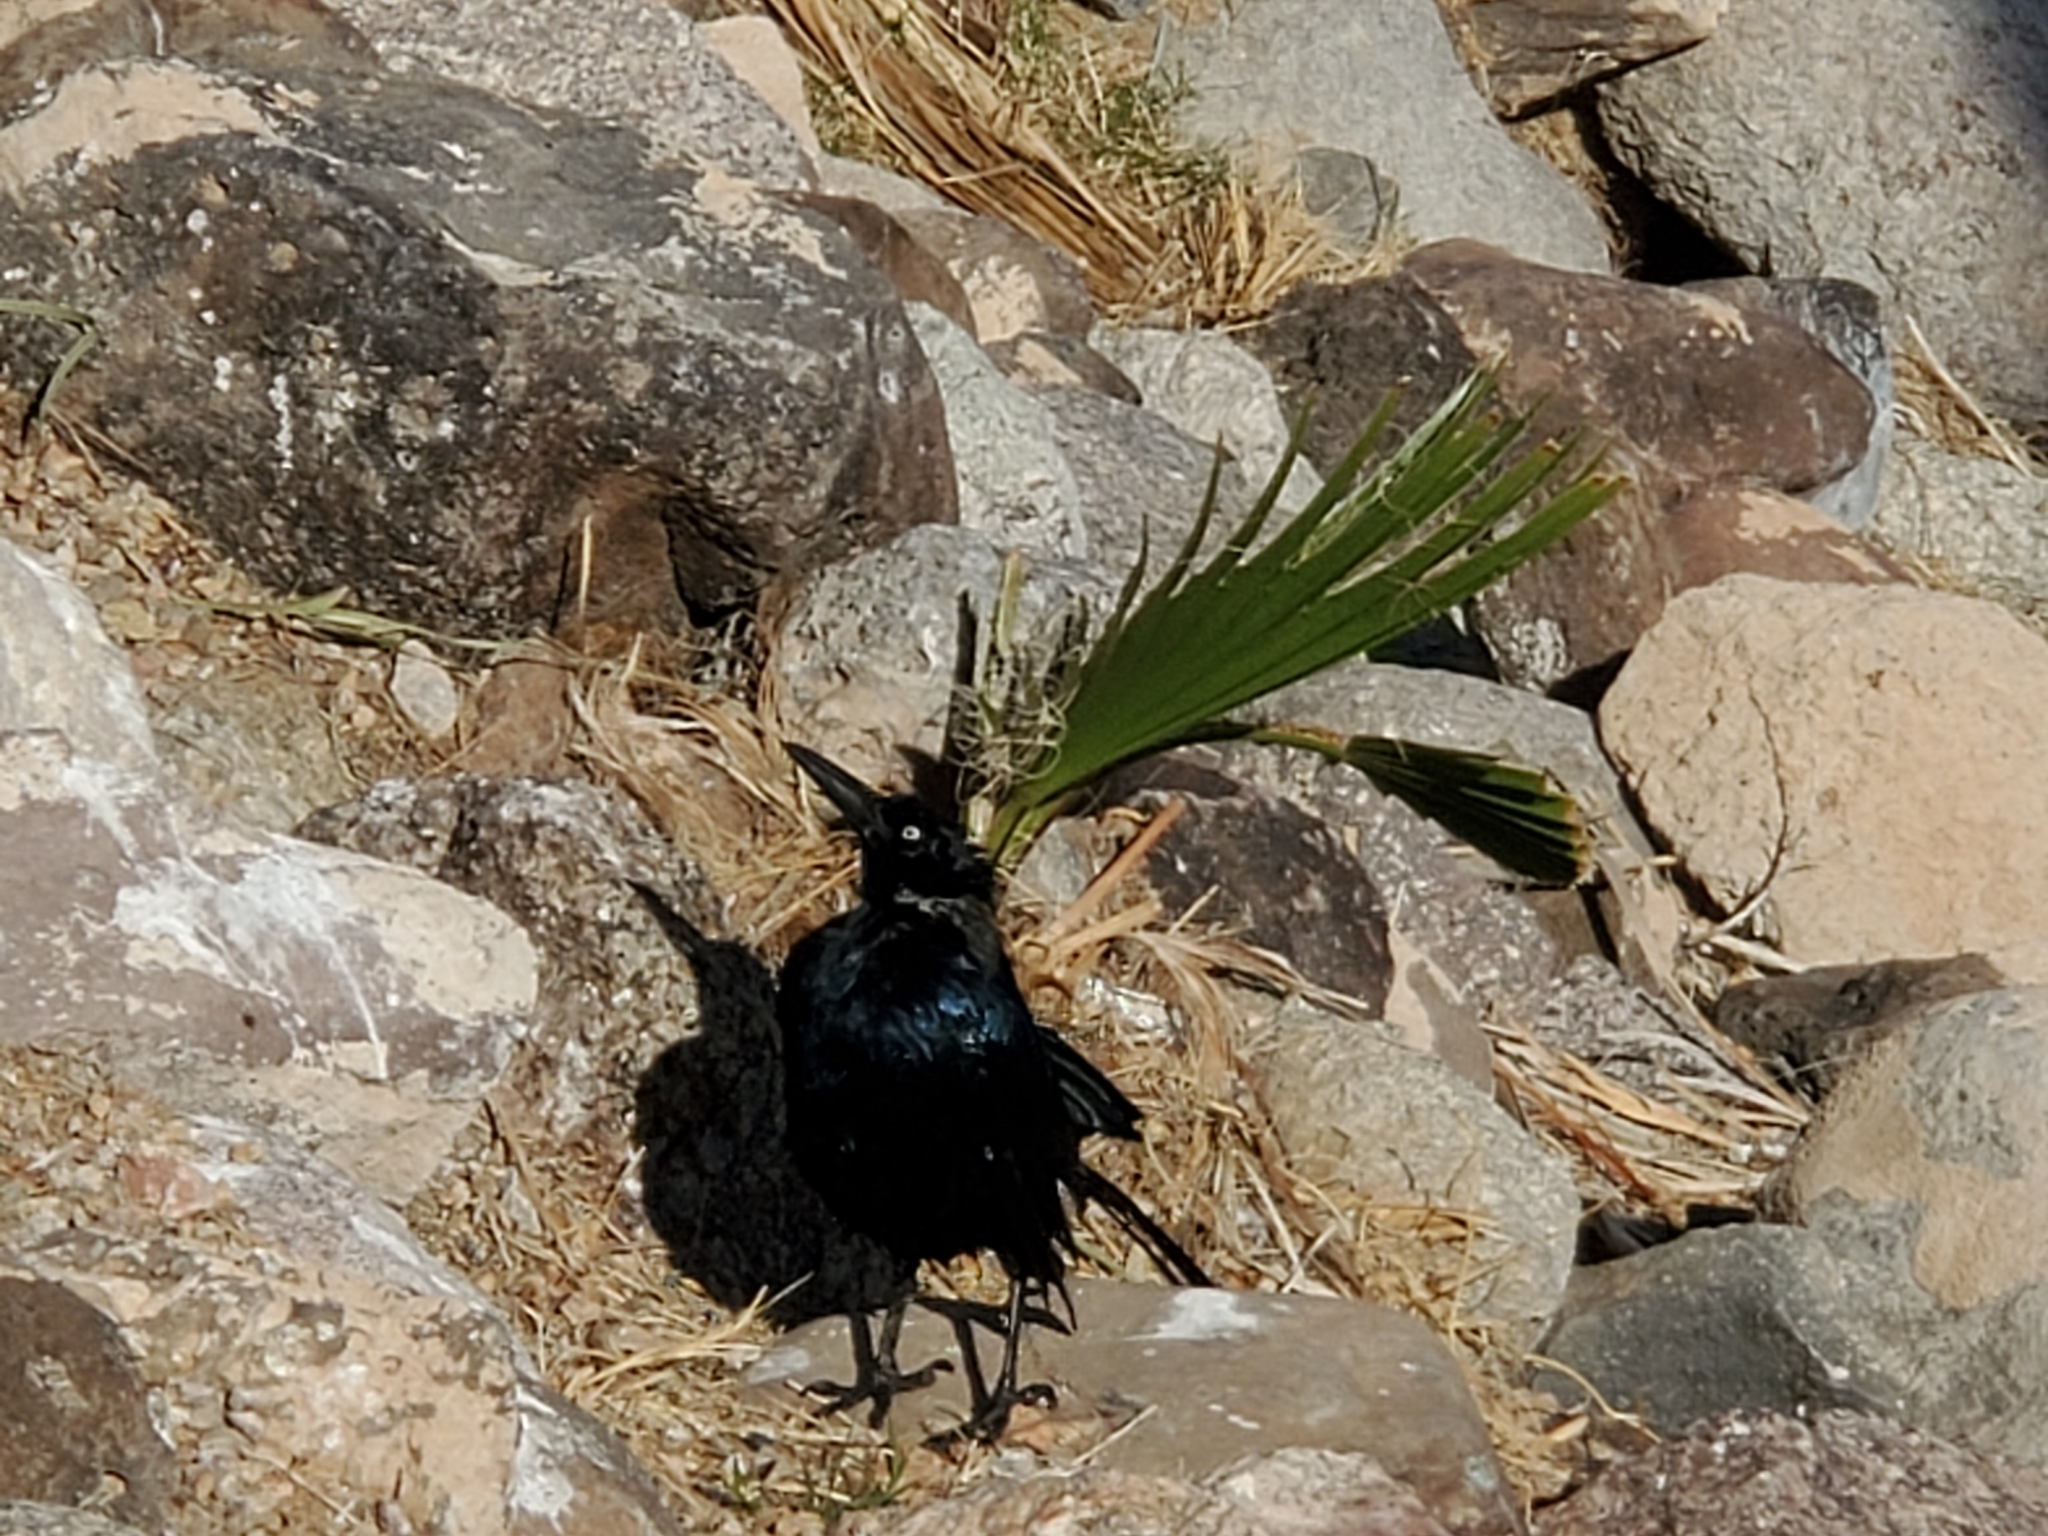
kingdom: Animalia
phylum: Chordata
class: Aves
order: Passeriformes
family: Icteridae
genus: Quiscalus
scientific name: Quiscalus mexicanus
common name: Great-tailed grackle
